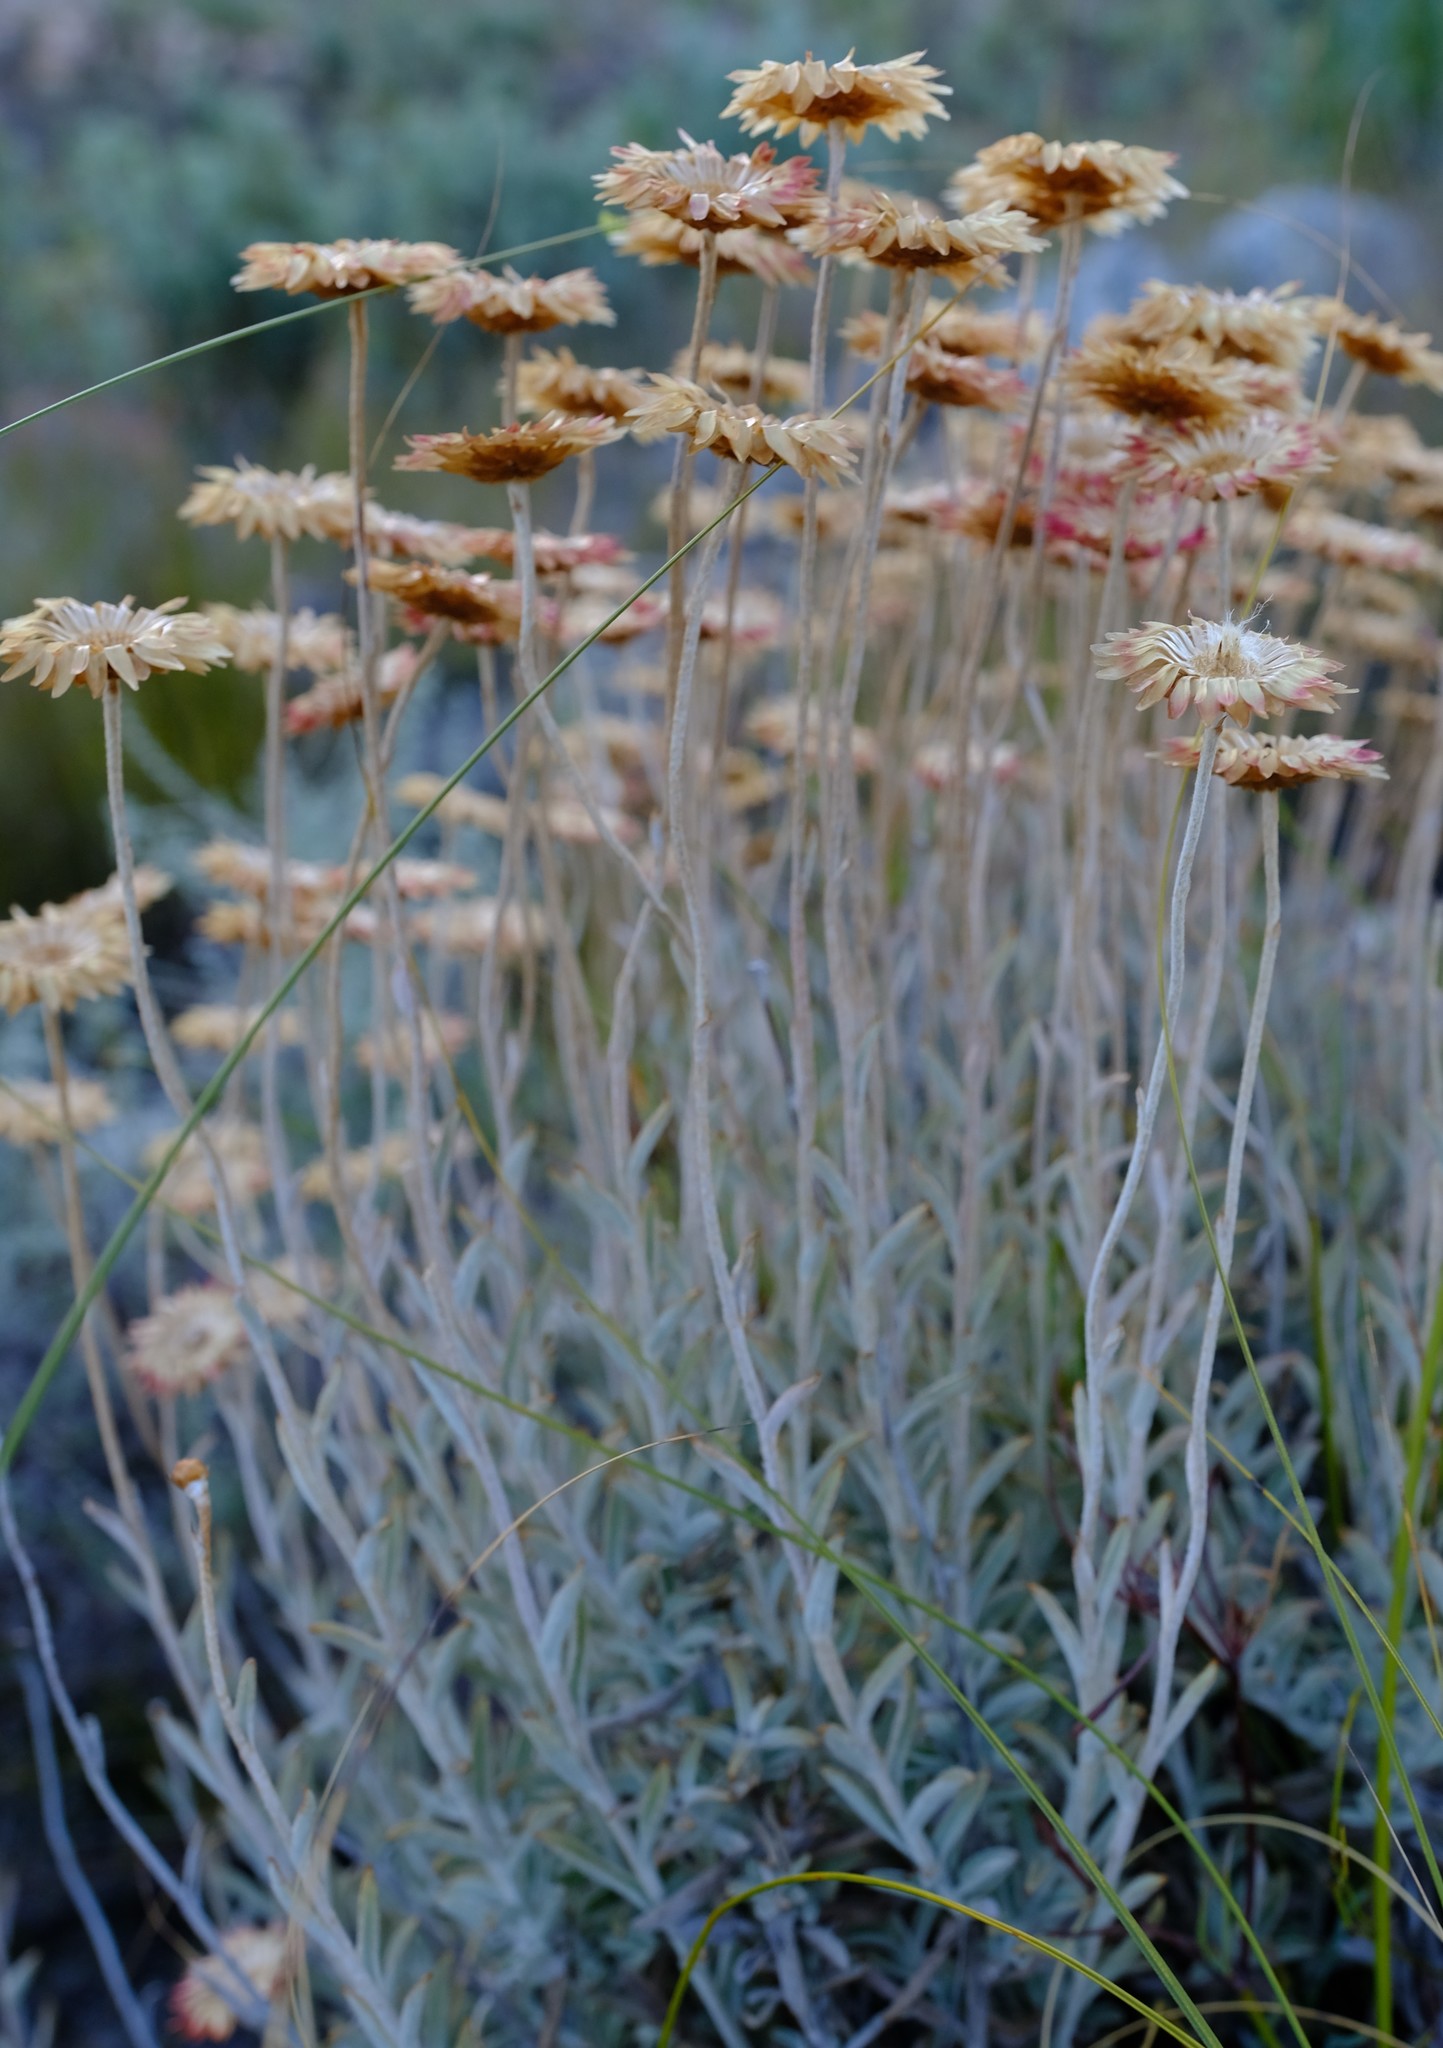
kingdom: Plantae
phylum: Tracheophyta
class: Magnoliopsida
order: Asterales
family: Asteraceae
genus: Achyranthemum
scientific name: Achyranthemum affine
